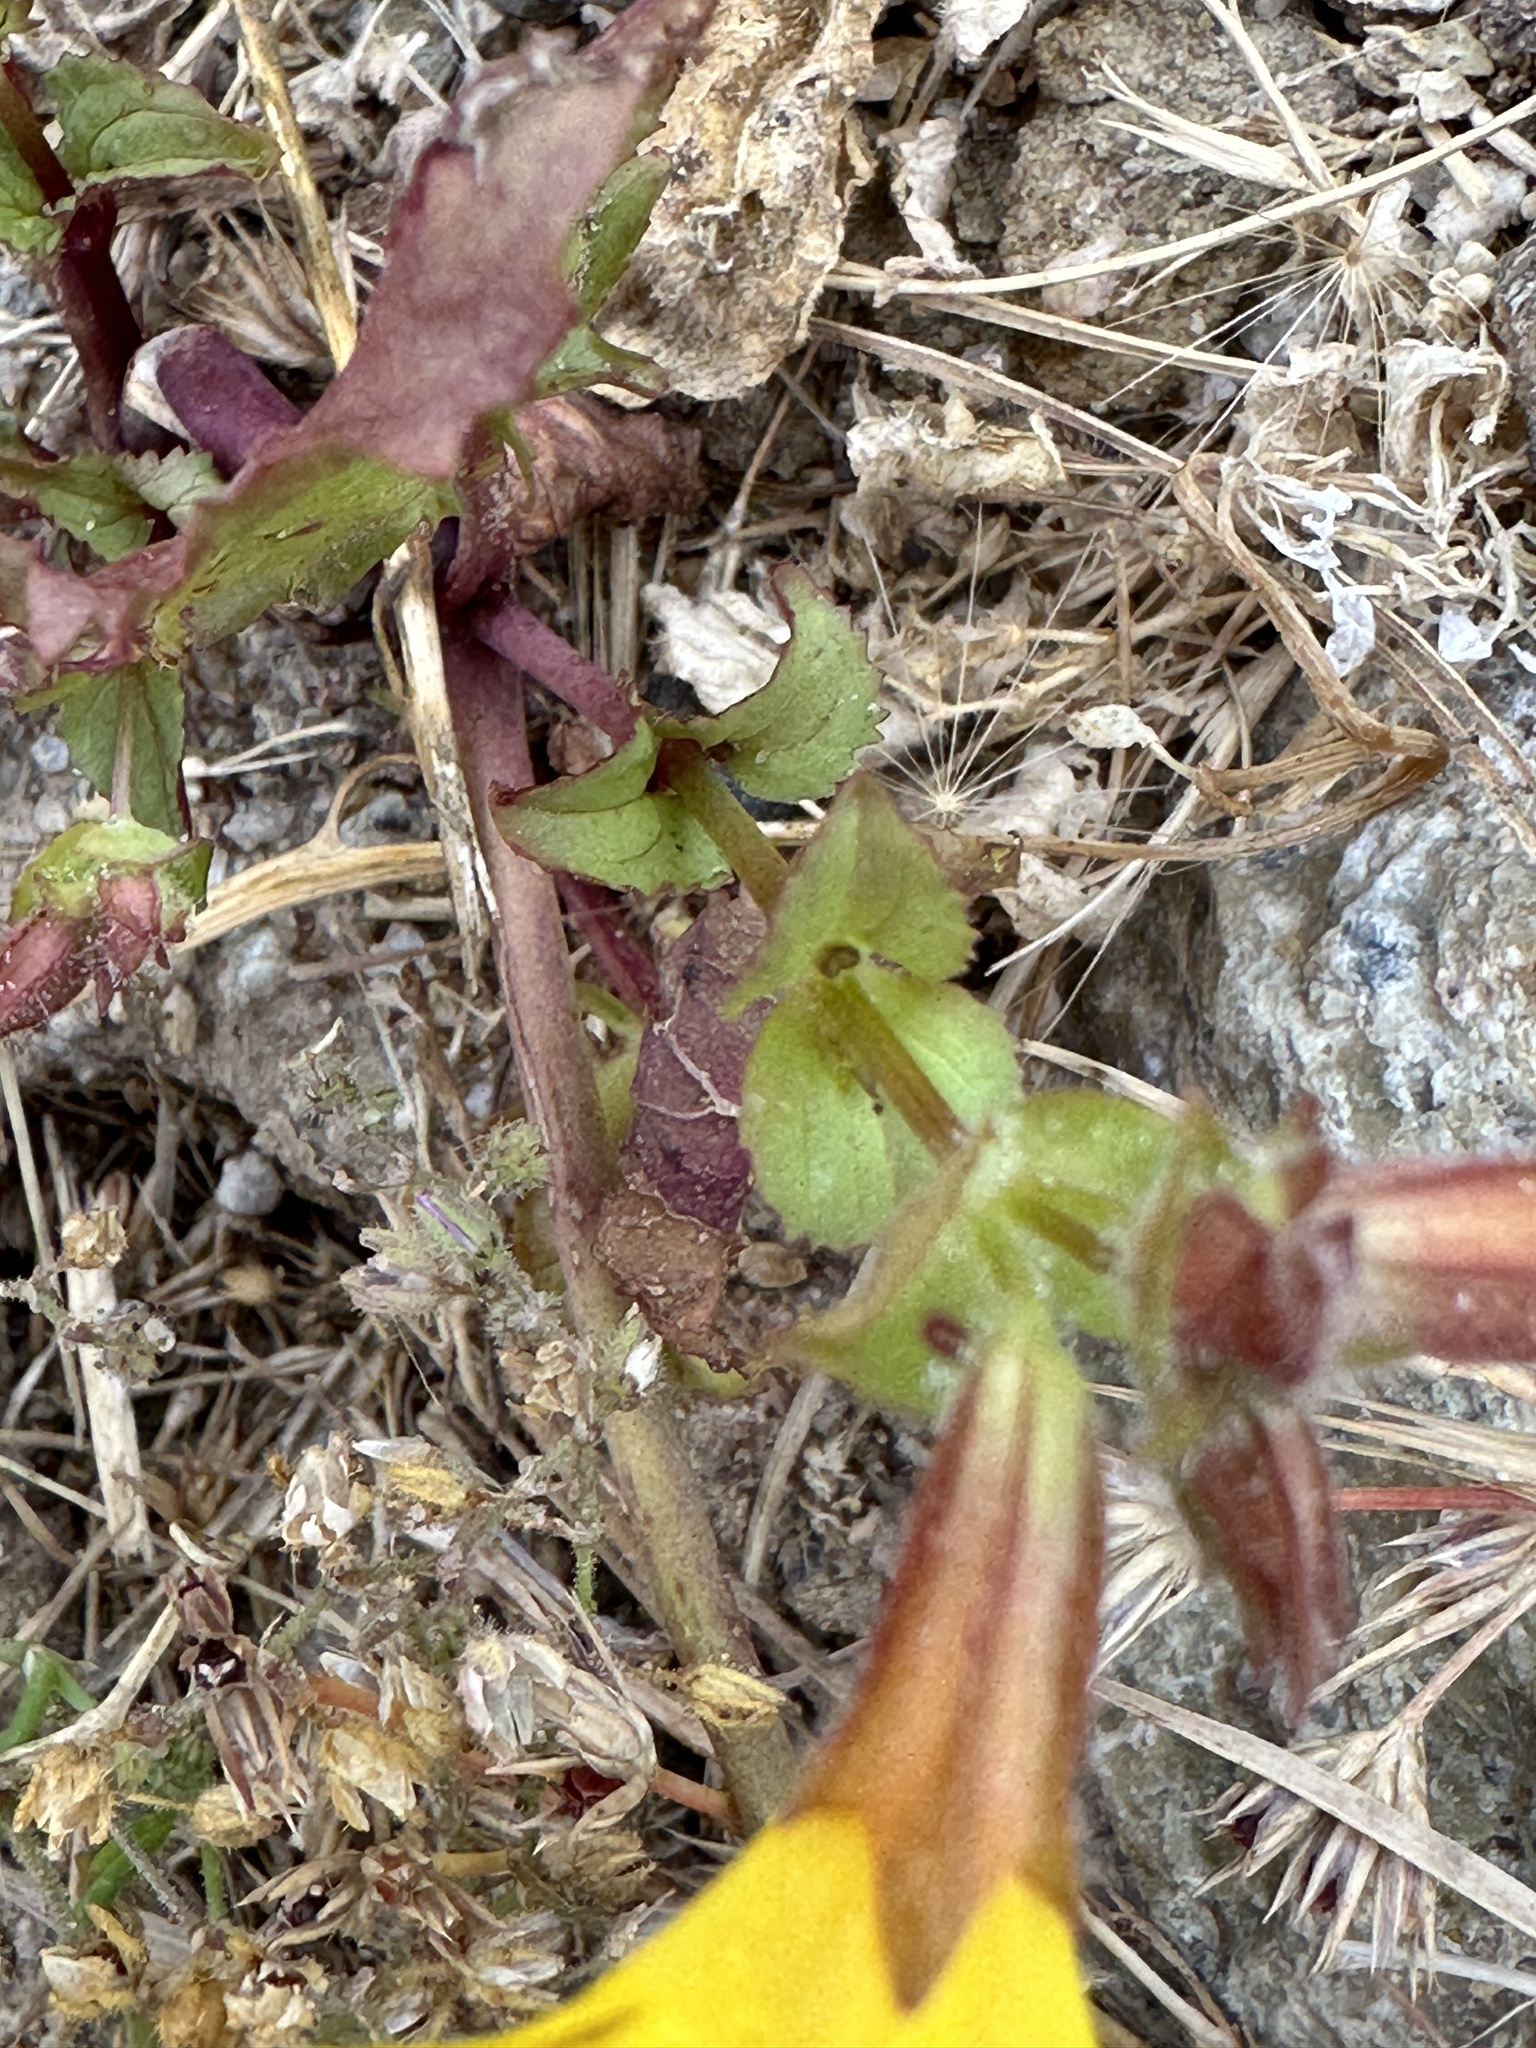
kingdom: Plantae
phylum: Tracheophyta
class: Magnoliopsida
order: Lamiales
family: Phrymaceae
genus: Erythranthe
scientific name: Erythranthe guttata
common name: Monkeyflower
